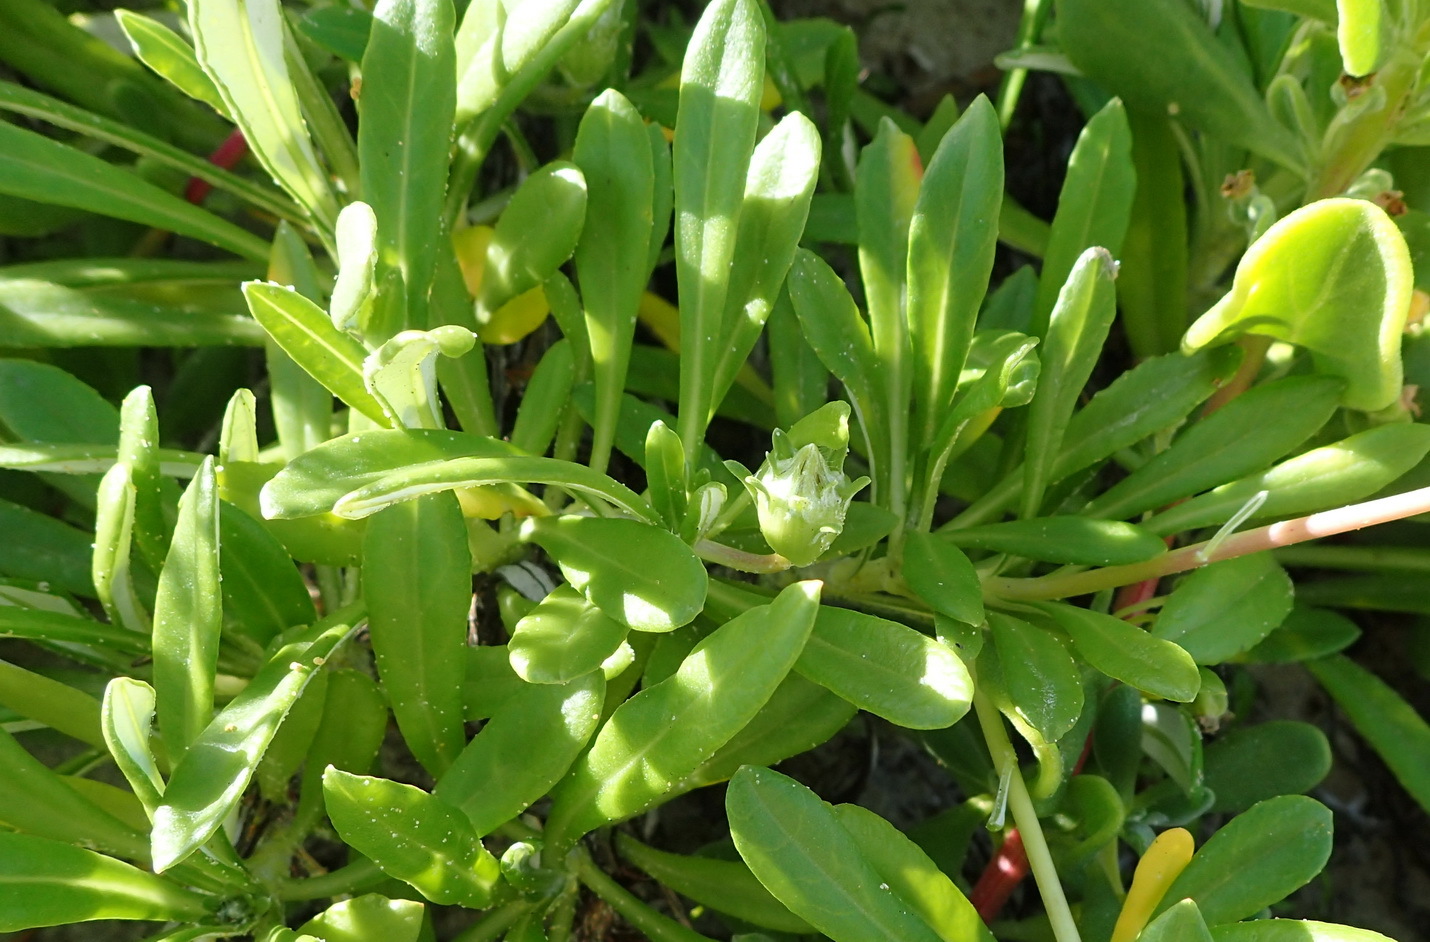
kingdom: Plantae
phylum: Tracheophyta
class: Magnoliopsida
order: Asterales
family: Asteraceae
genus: Gazania
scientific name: Gazania rigens
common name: Treasureflower
